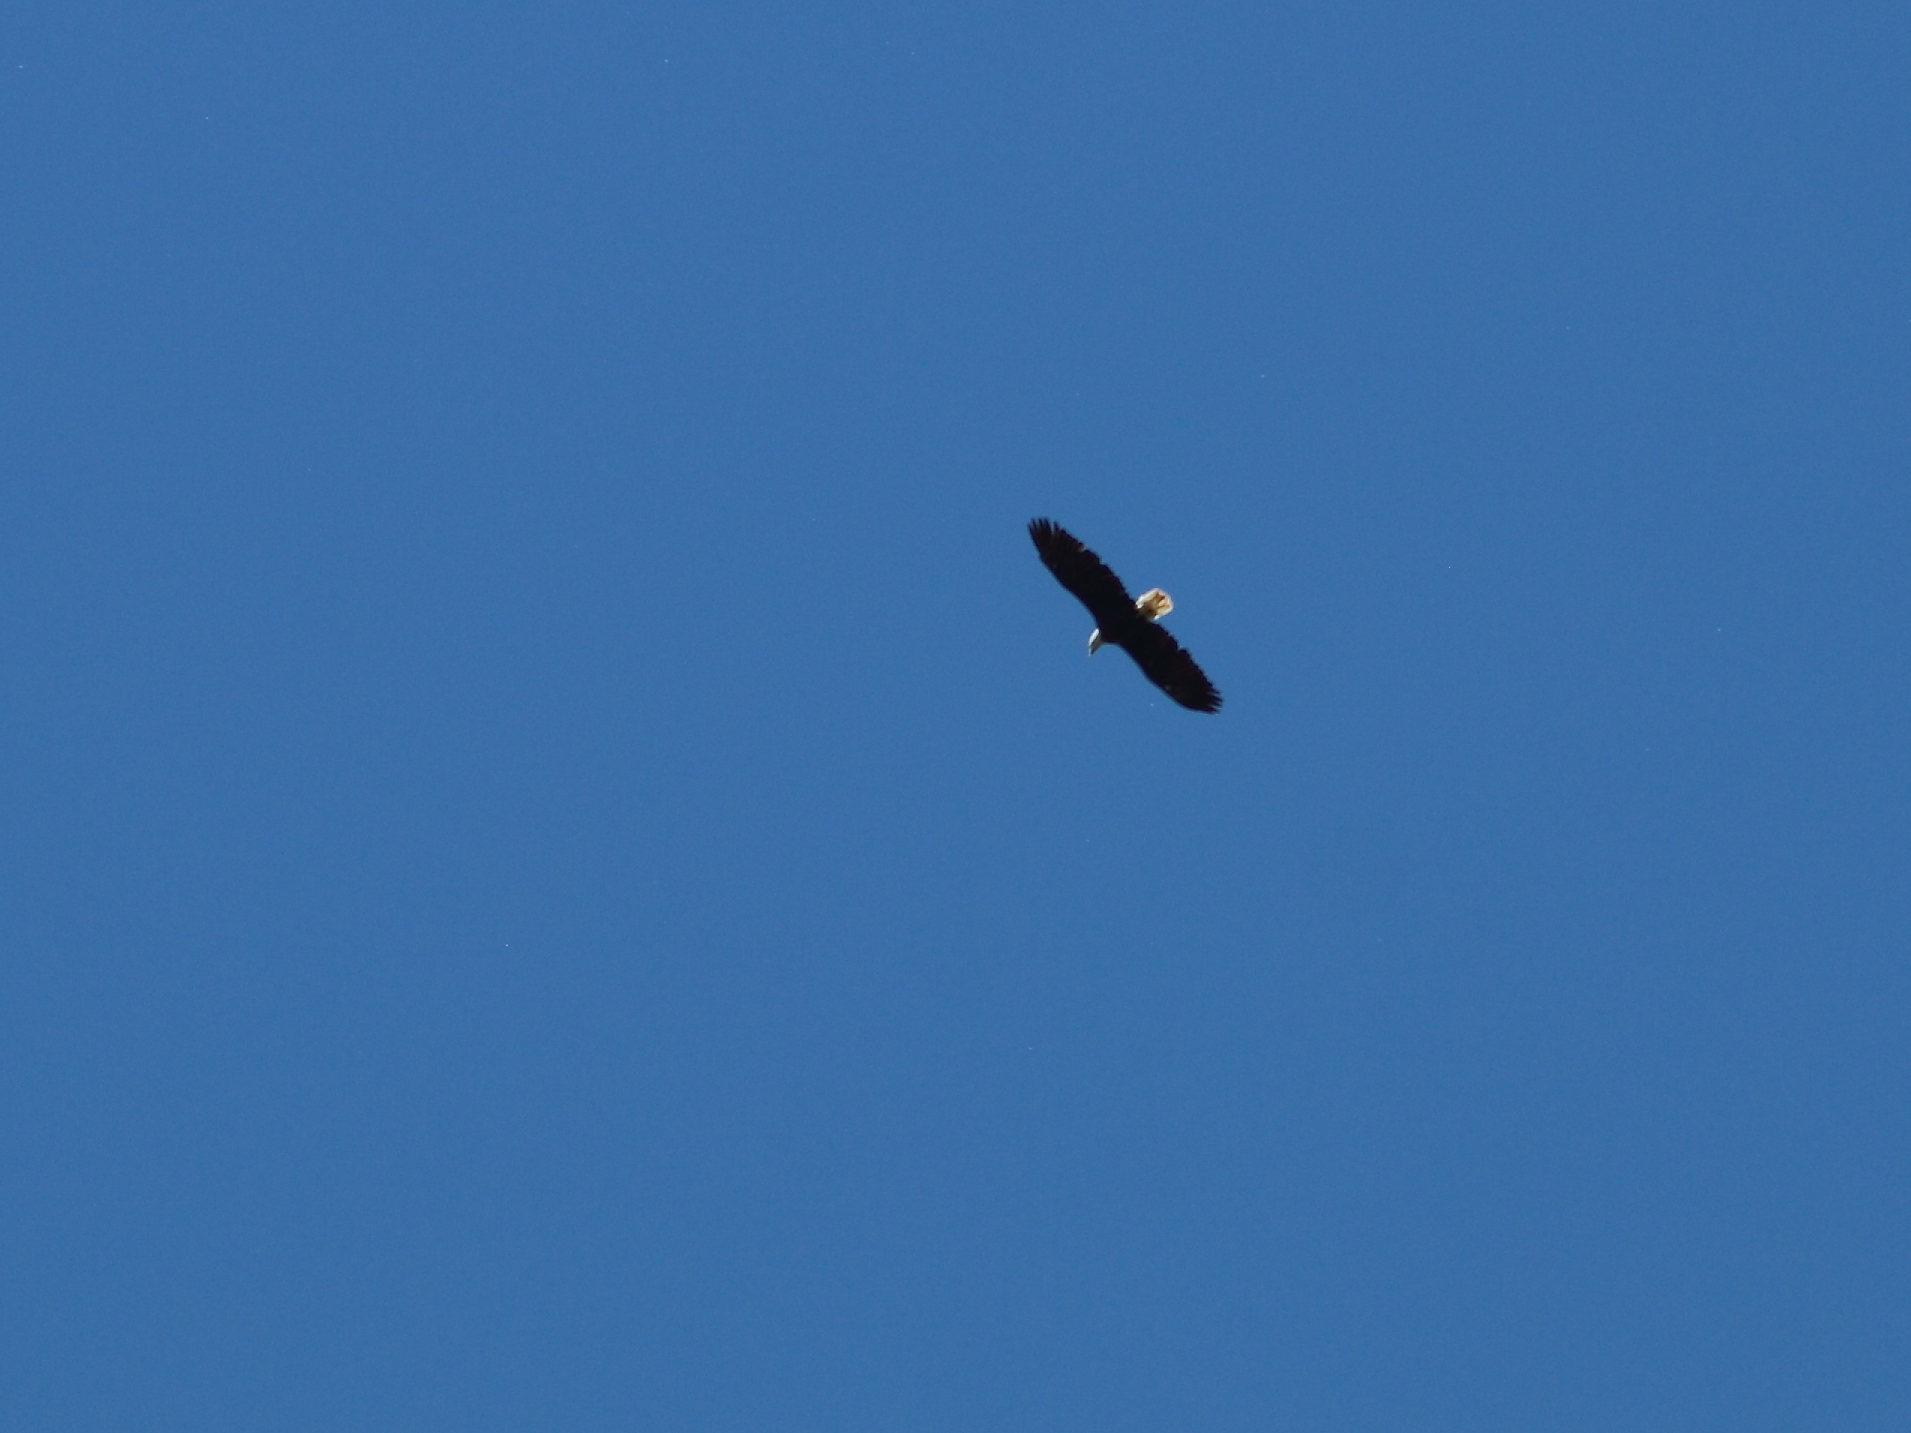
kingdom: Animalia
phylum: Chordata
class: Aves
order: Accipitriformes
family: Accipitridae
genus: Haliaeetus
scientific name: Haliaeetus leucocephalus
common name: Bald eagle
